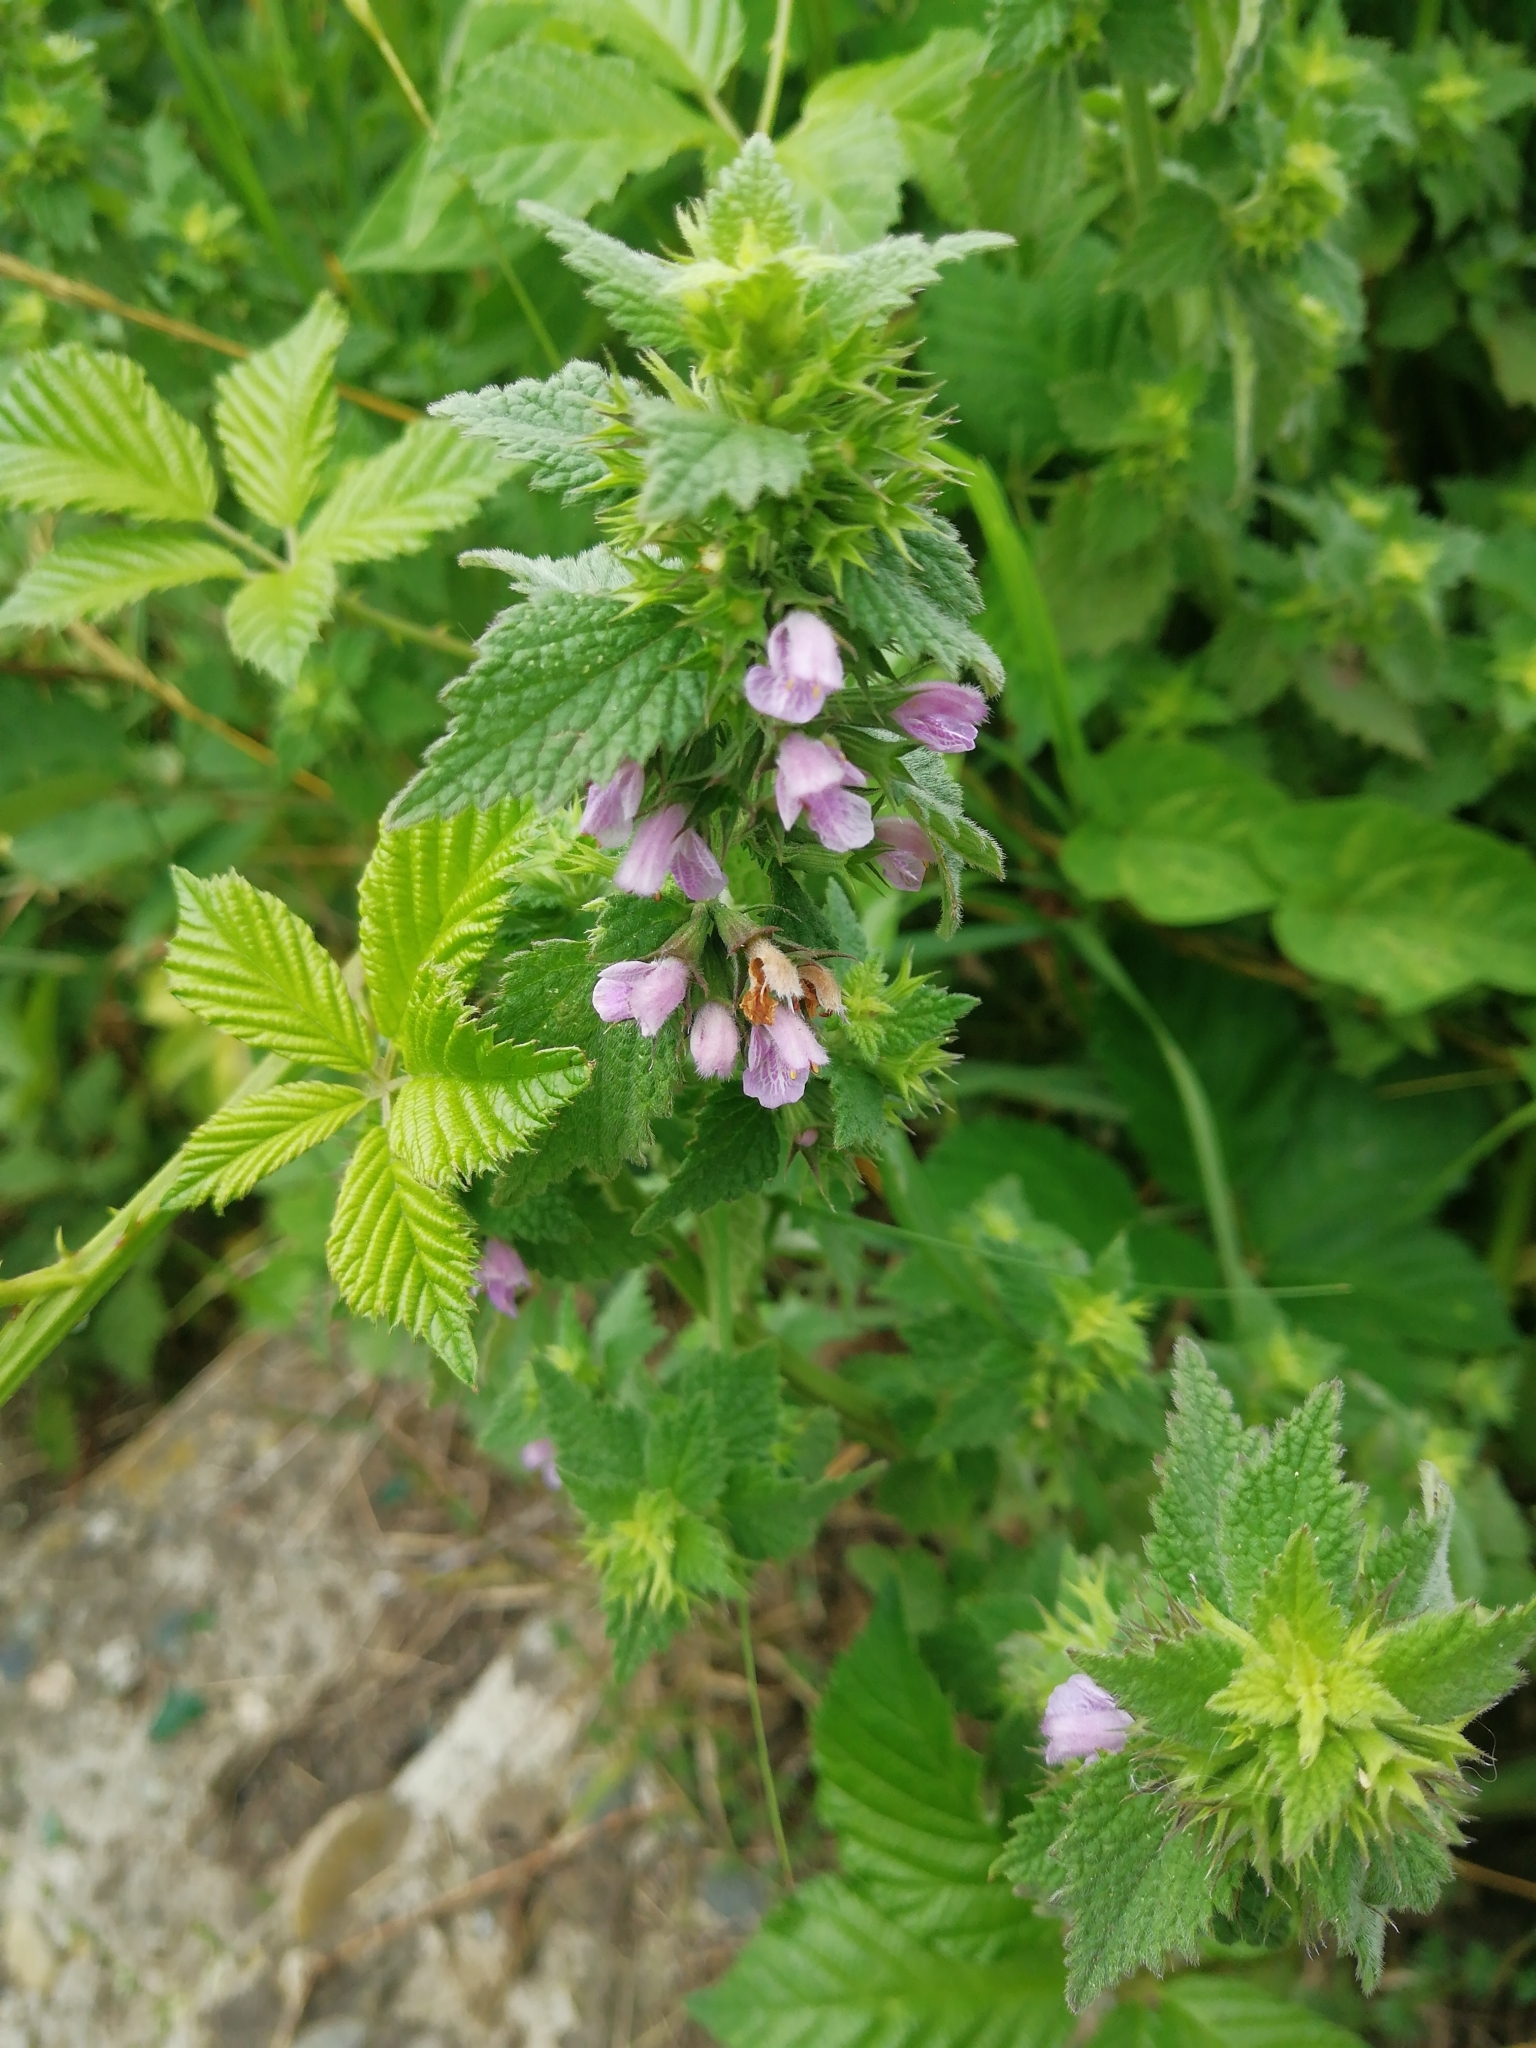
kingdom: Plantae
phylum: Tracheophyta
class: Magnoliopsida
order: Lamiales
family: Lamiaceae
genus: Ballota
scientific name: Ballota nigra
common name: Black horehound
